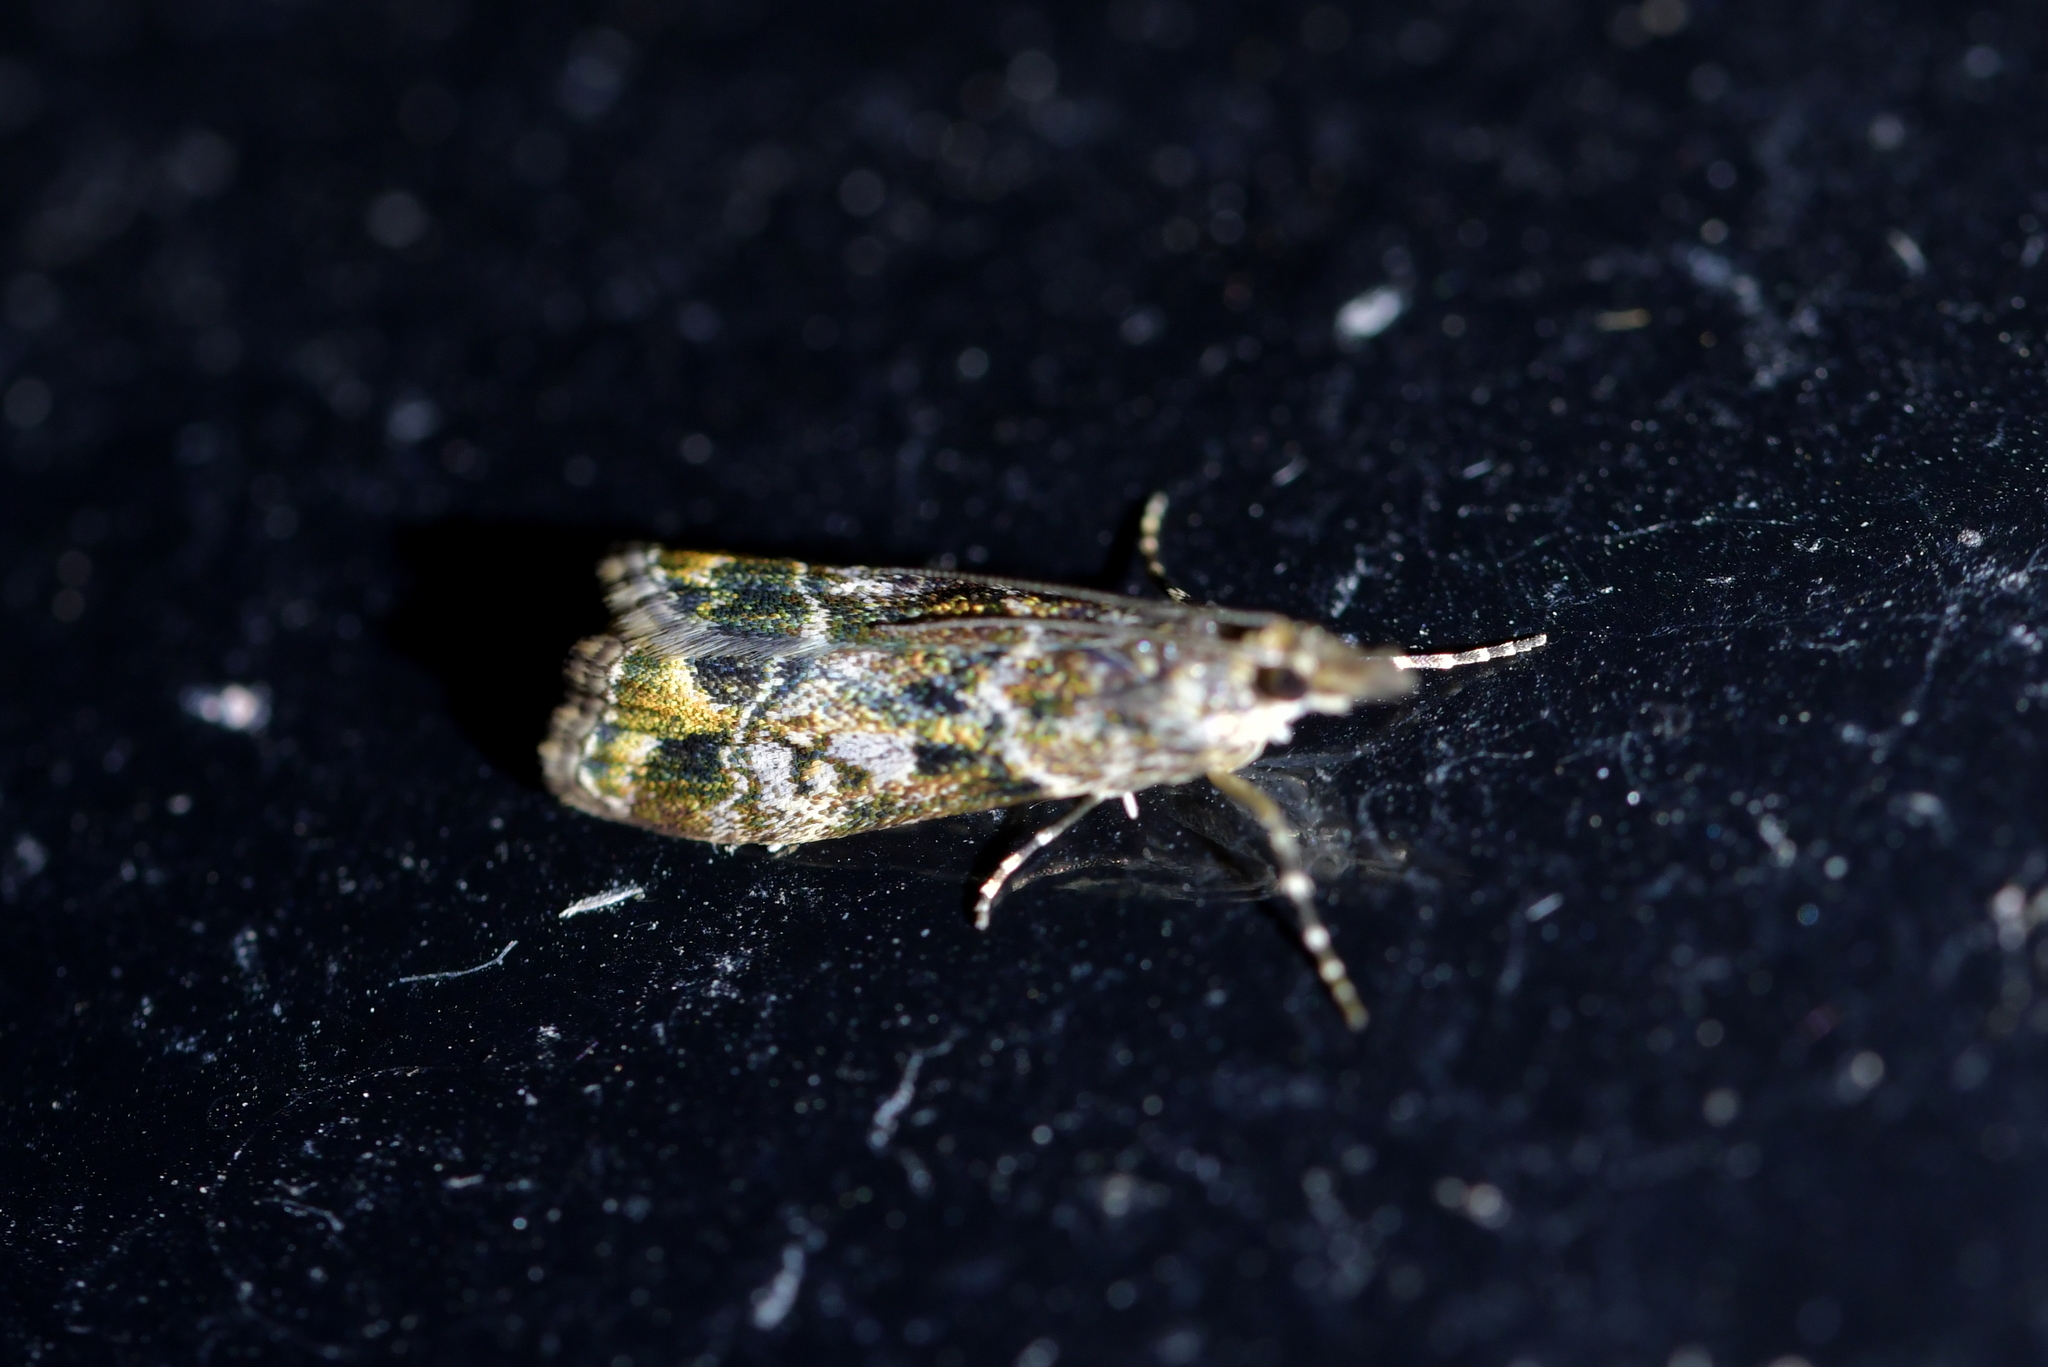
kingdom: Animalia
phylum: Arthropoda
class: Insecta
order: Lepidoptera
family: Crambidae
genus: Eudonia
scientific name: Eudonia minualis
